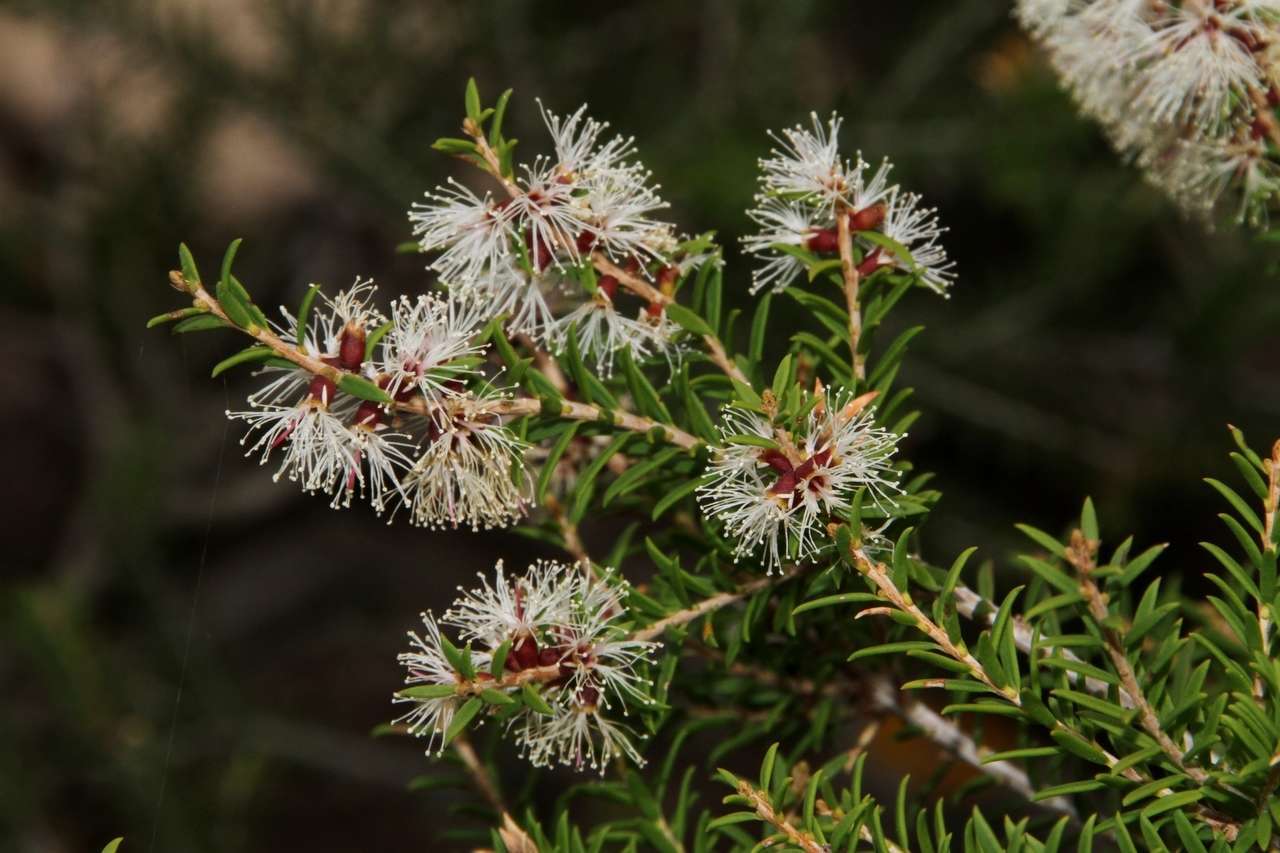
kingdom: Plantae
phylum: Tracheophyta
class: Magnoliopsida
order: Myrtales
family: Myrtaceae
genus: Melaleuca
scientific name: Melaleuca lanceolata
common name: Rottnest island teatree
